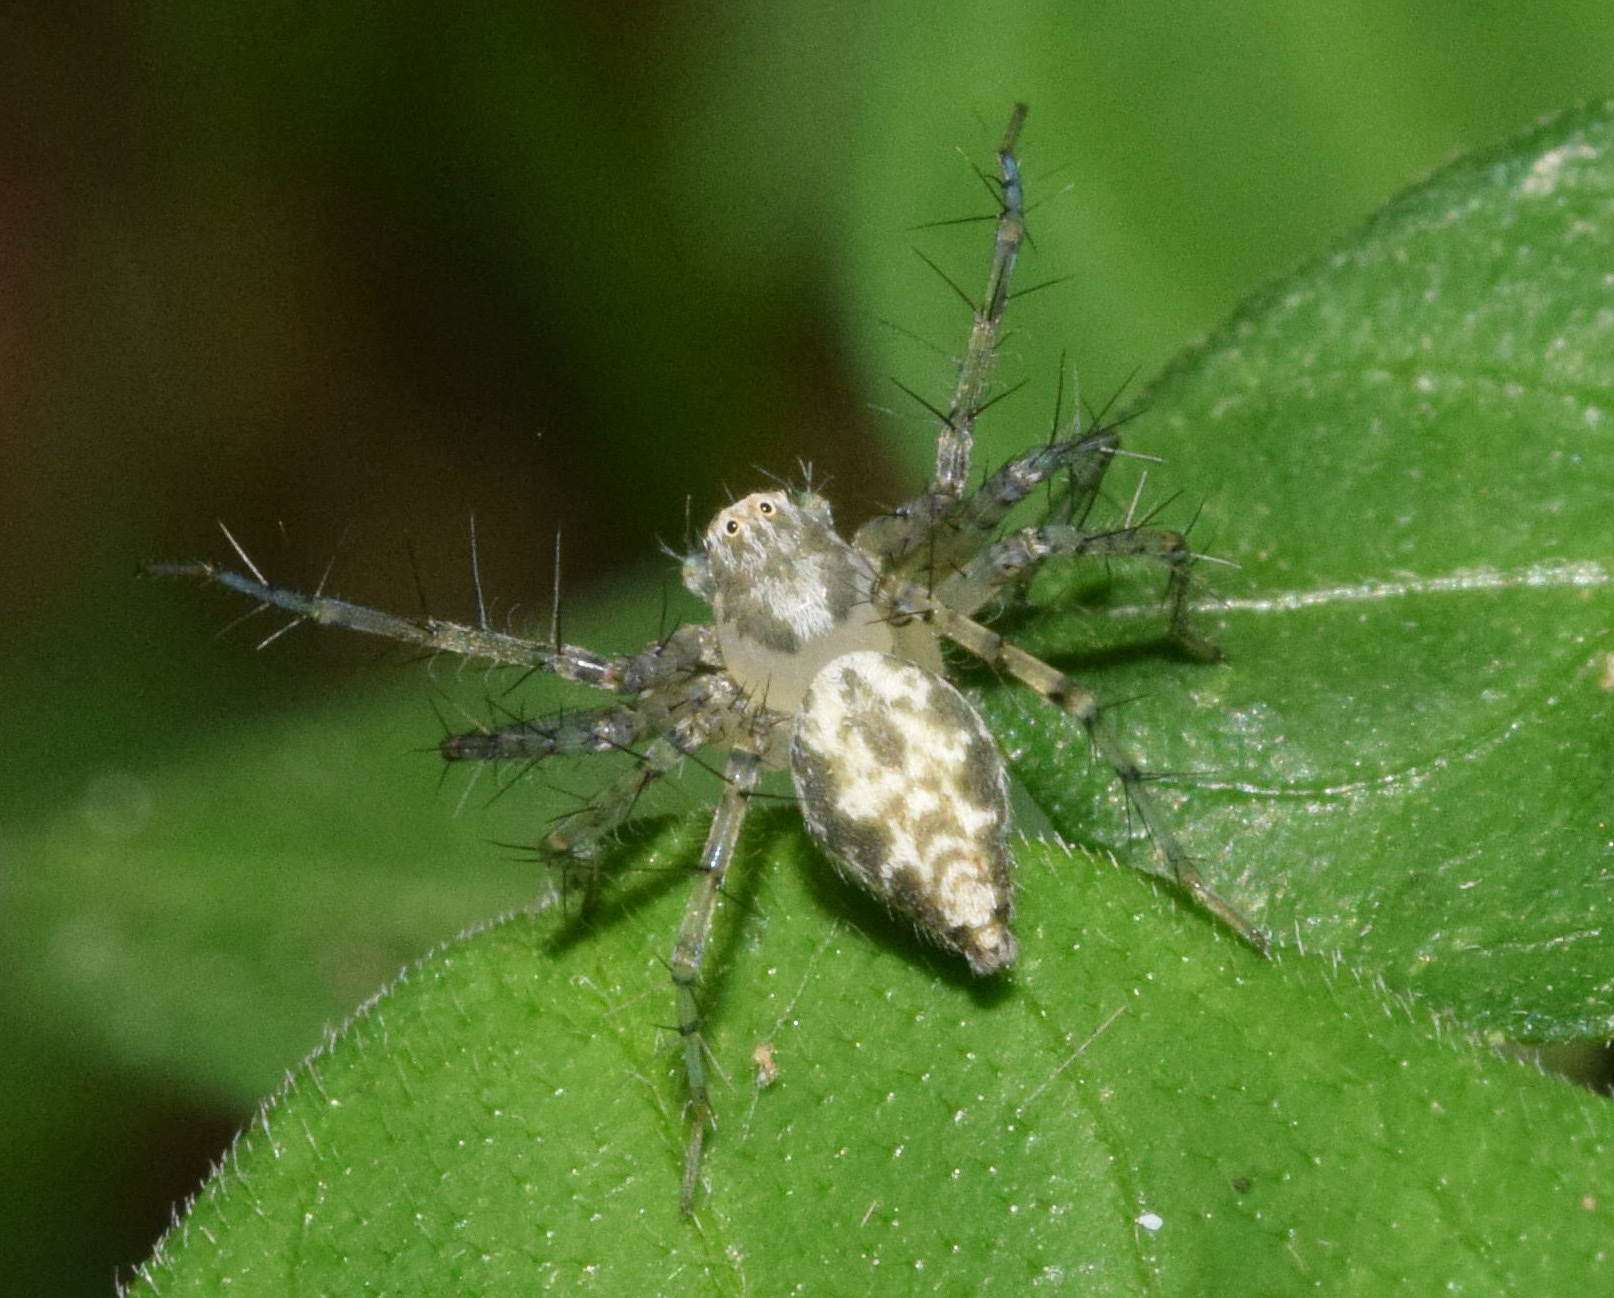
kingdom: Animalia
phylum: Arthropoda
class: Arachnida
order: Araneae
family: Oxyopidae
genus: Oxyopes
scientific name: Oxyopes longispinosus
